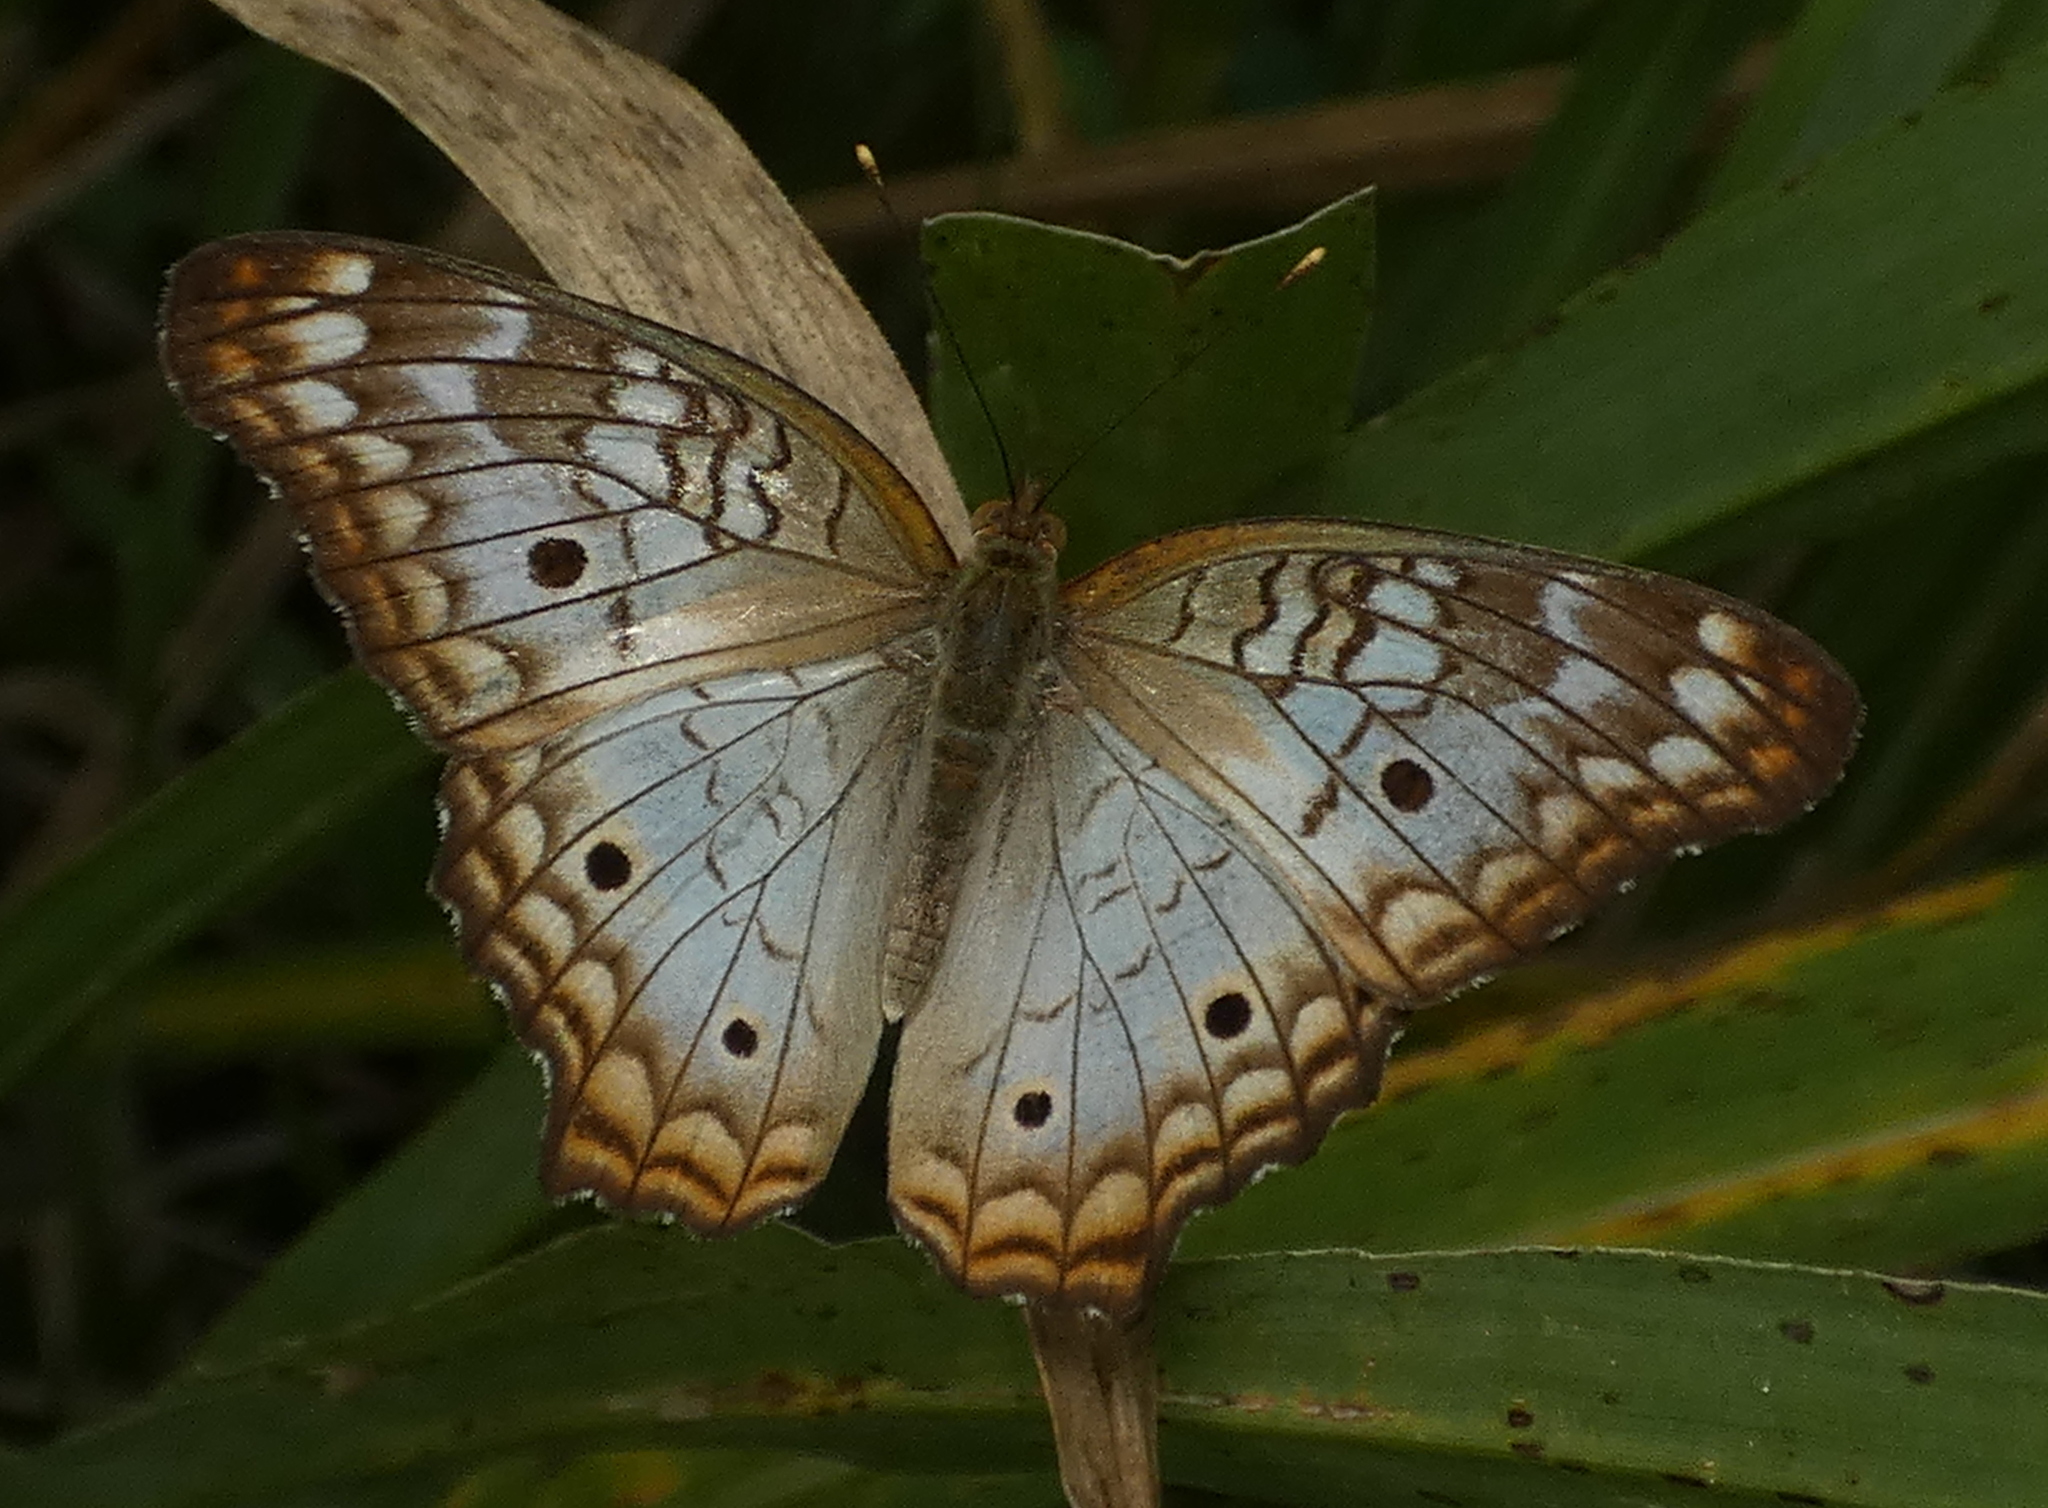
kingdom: Animalia
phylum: Arthropoda
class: Insecta
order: Lepidoptera
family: Nymphalidae
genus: Anartia
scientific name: Anartia jatrophae
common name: White peacock
